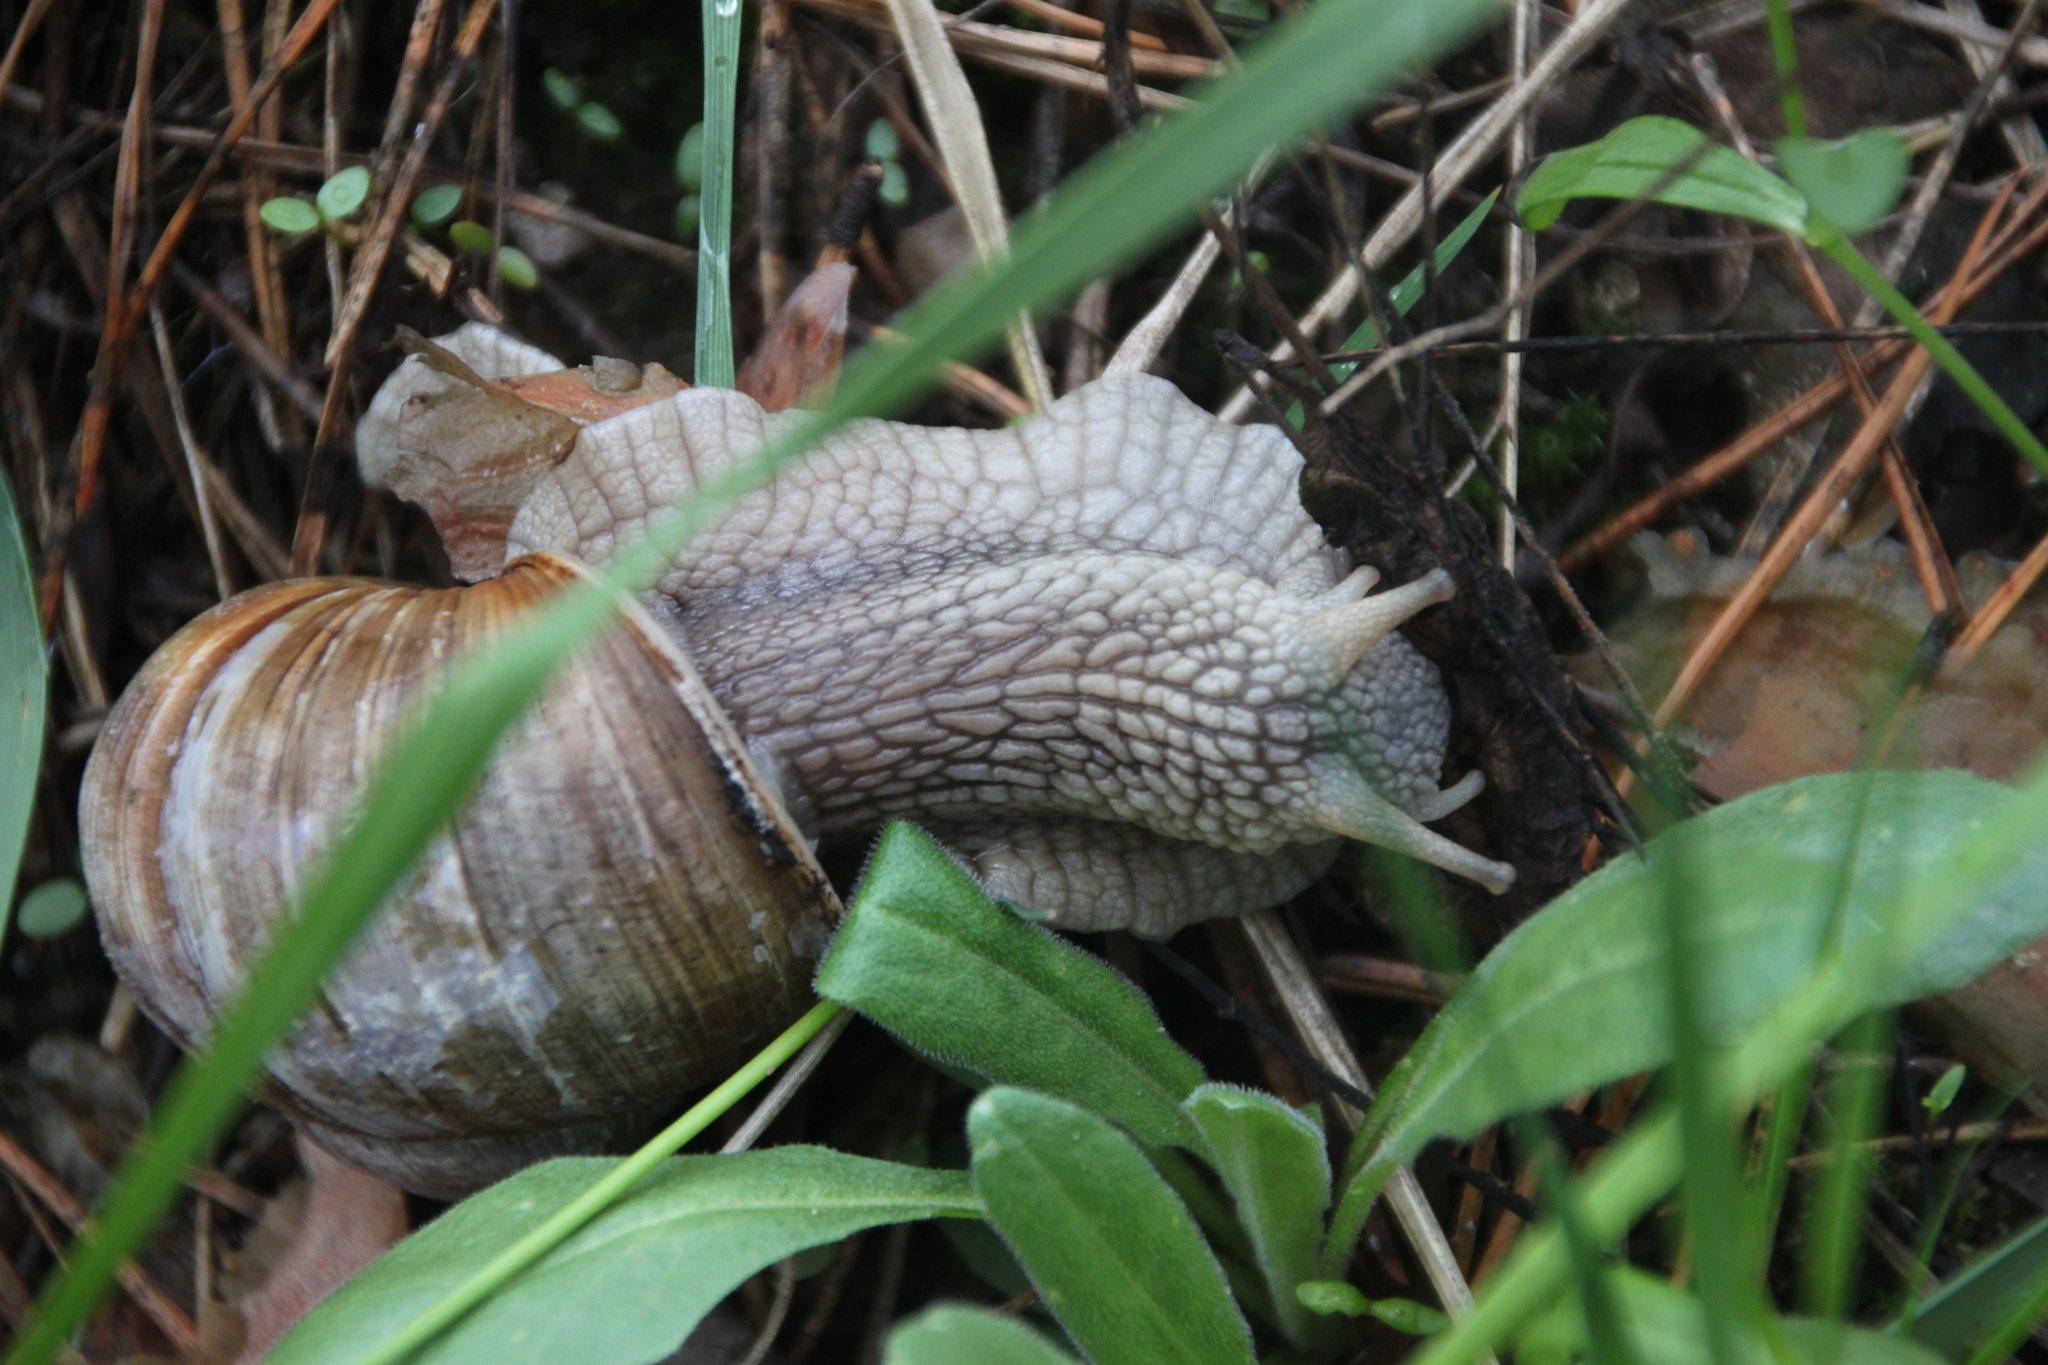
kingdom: Animalia
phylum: Mollusca
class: Gastropoda
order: Stylommatophora
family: Helicidae
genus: Helix
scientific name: Helix pomatia
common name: Roman snail
